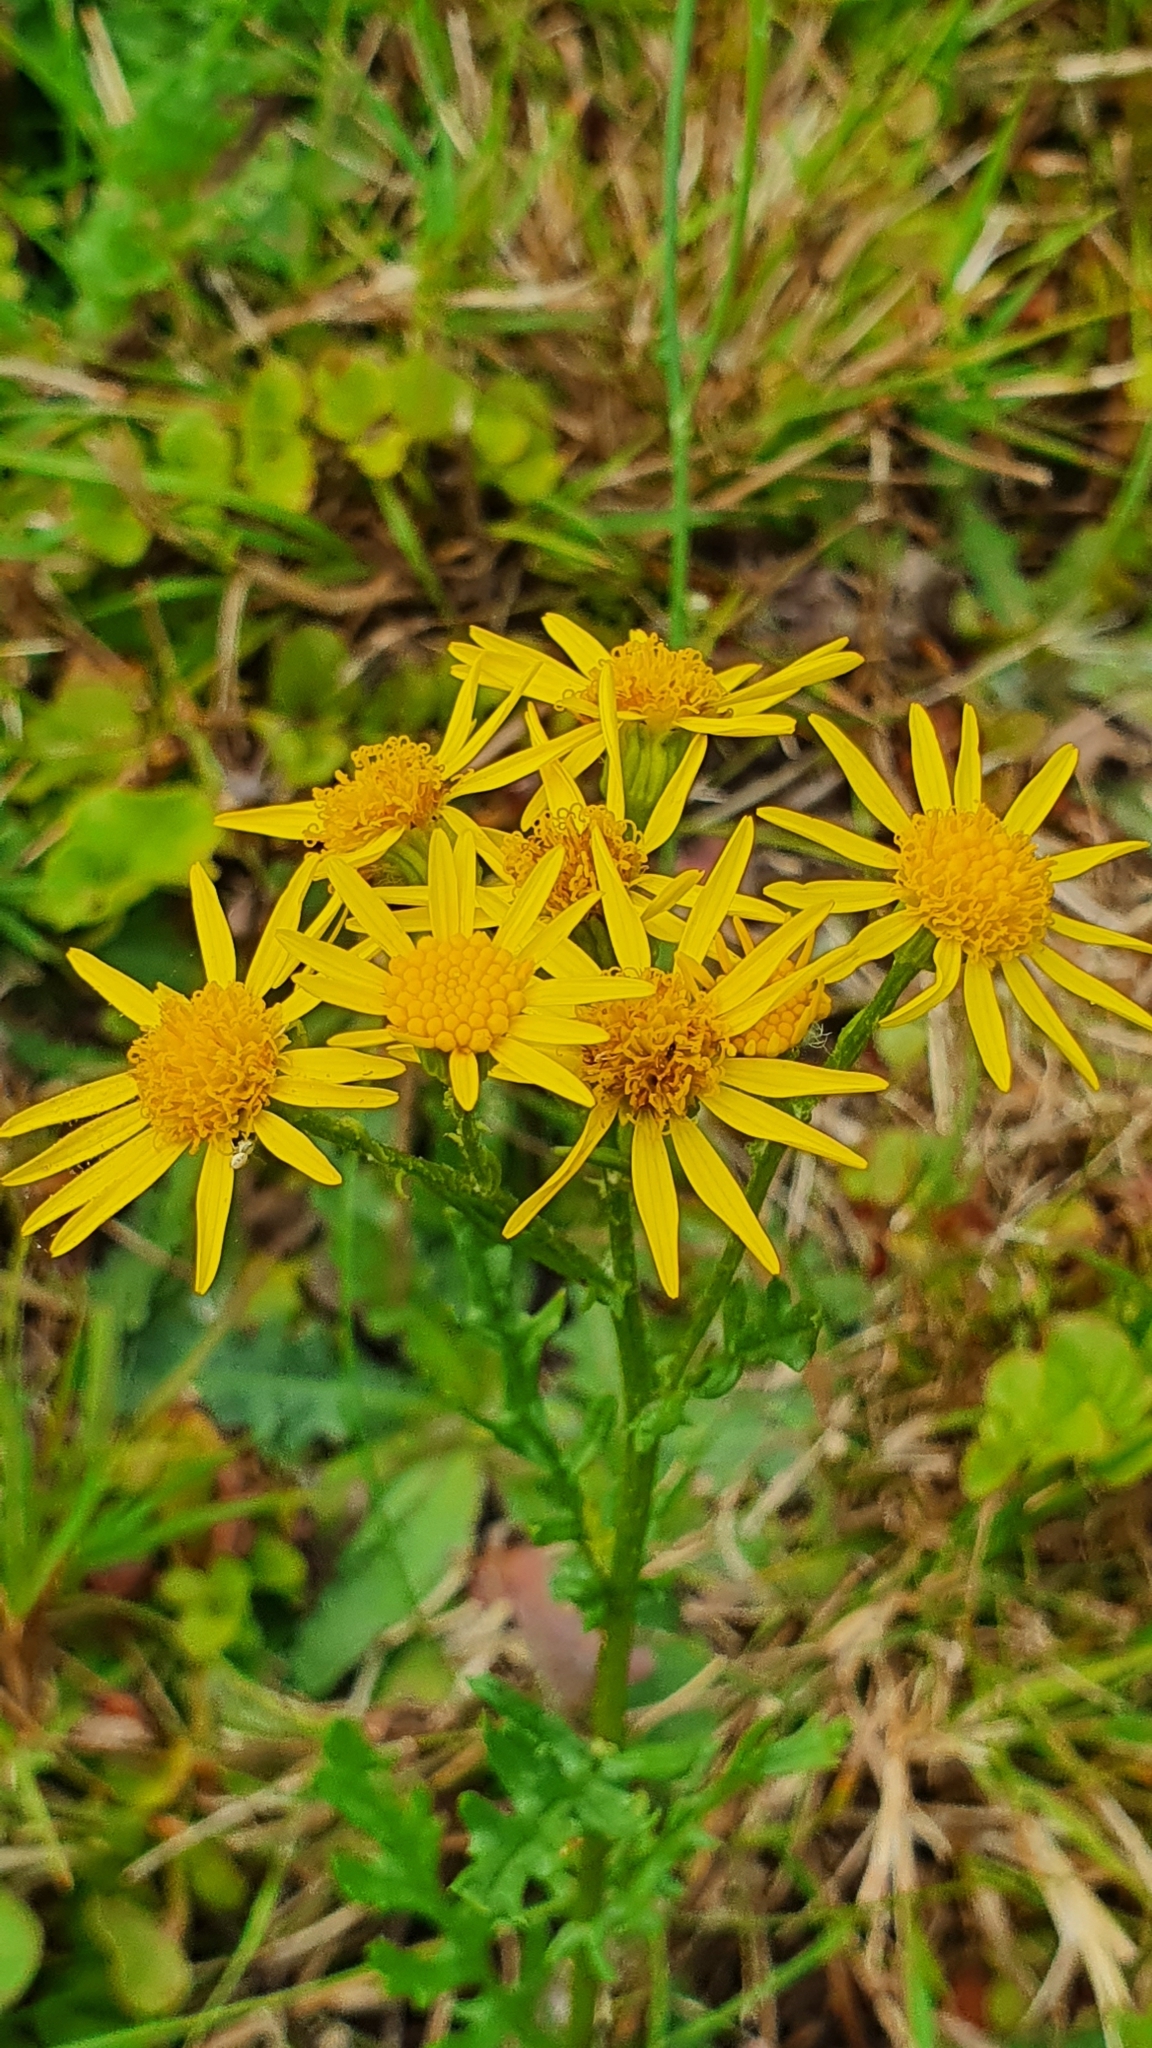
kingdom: Plantae
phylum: Tracheophyta
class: Magnoliopsida
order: Asterales
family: Asteraceae
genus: Jacobaea
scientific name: Jacobaea vulgaris
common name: Stinking willie
